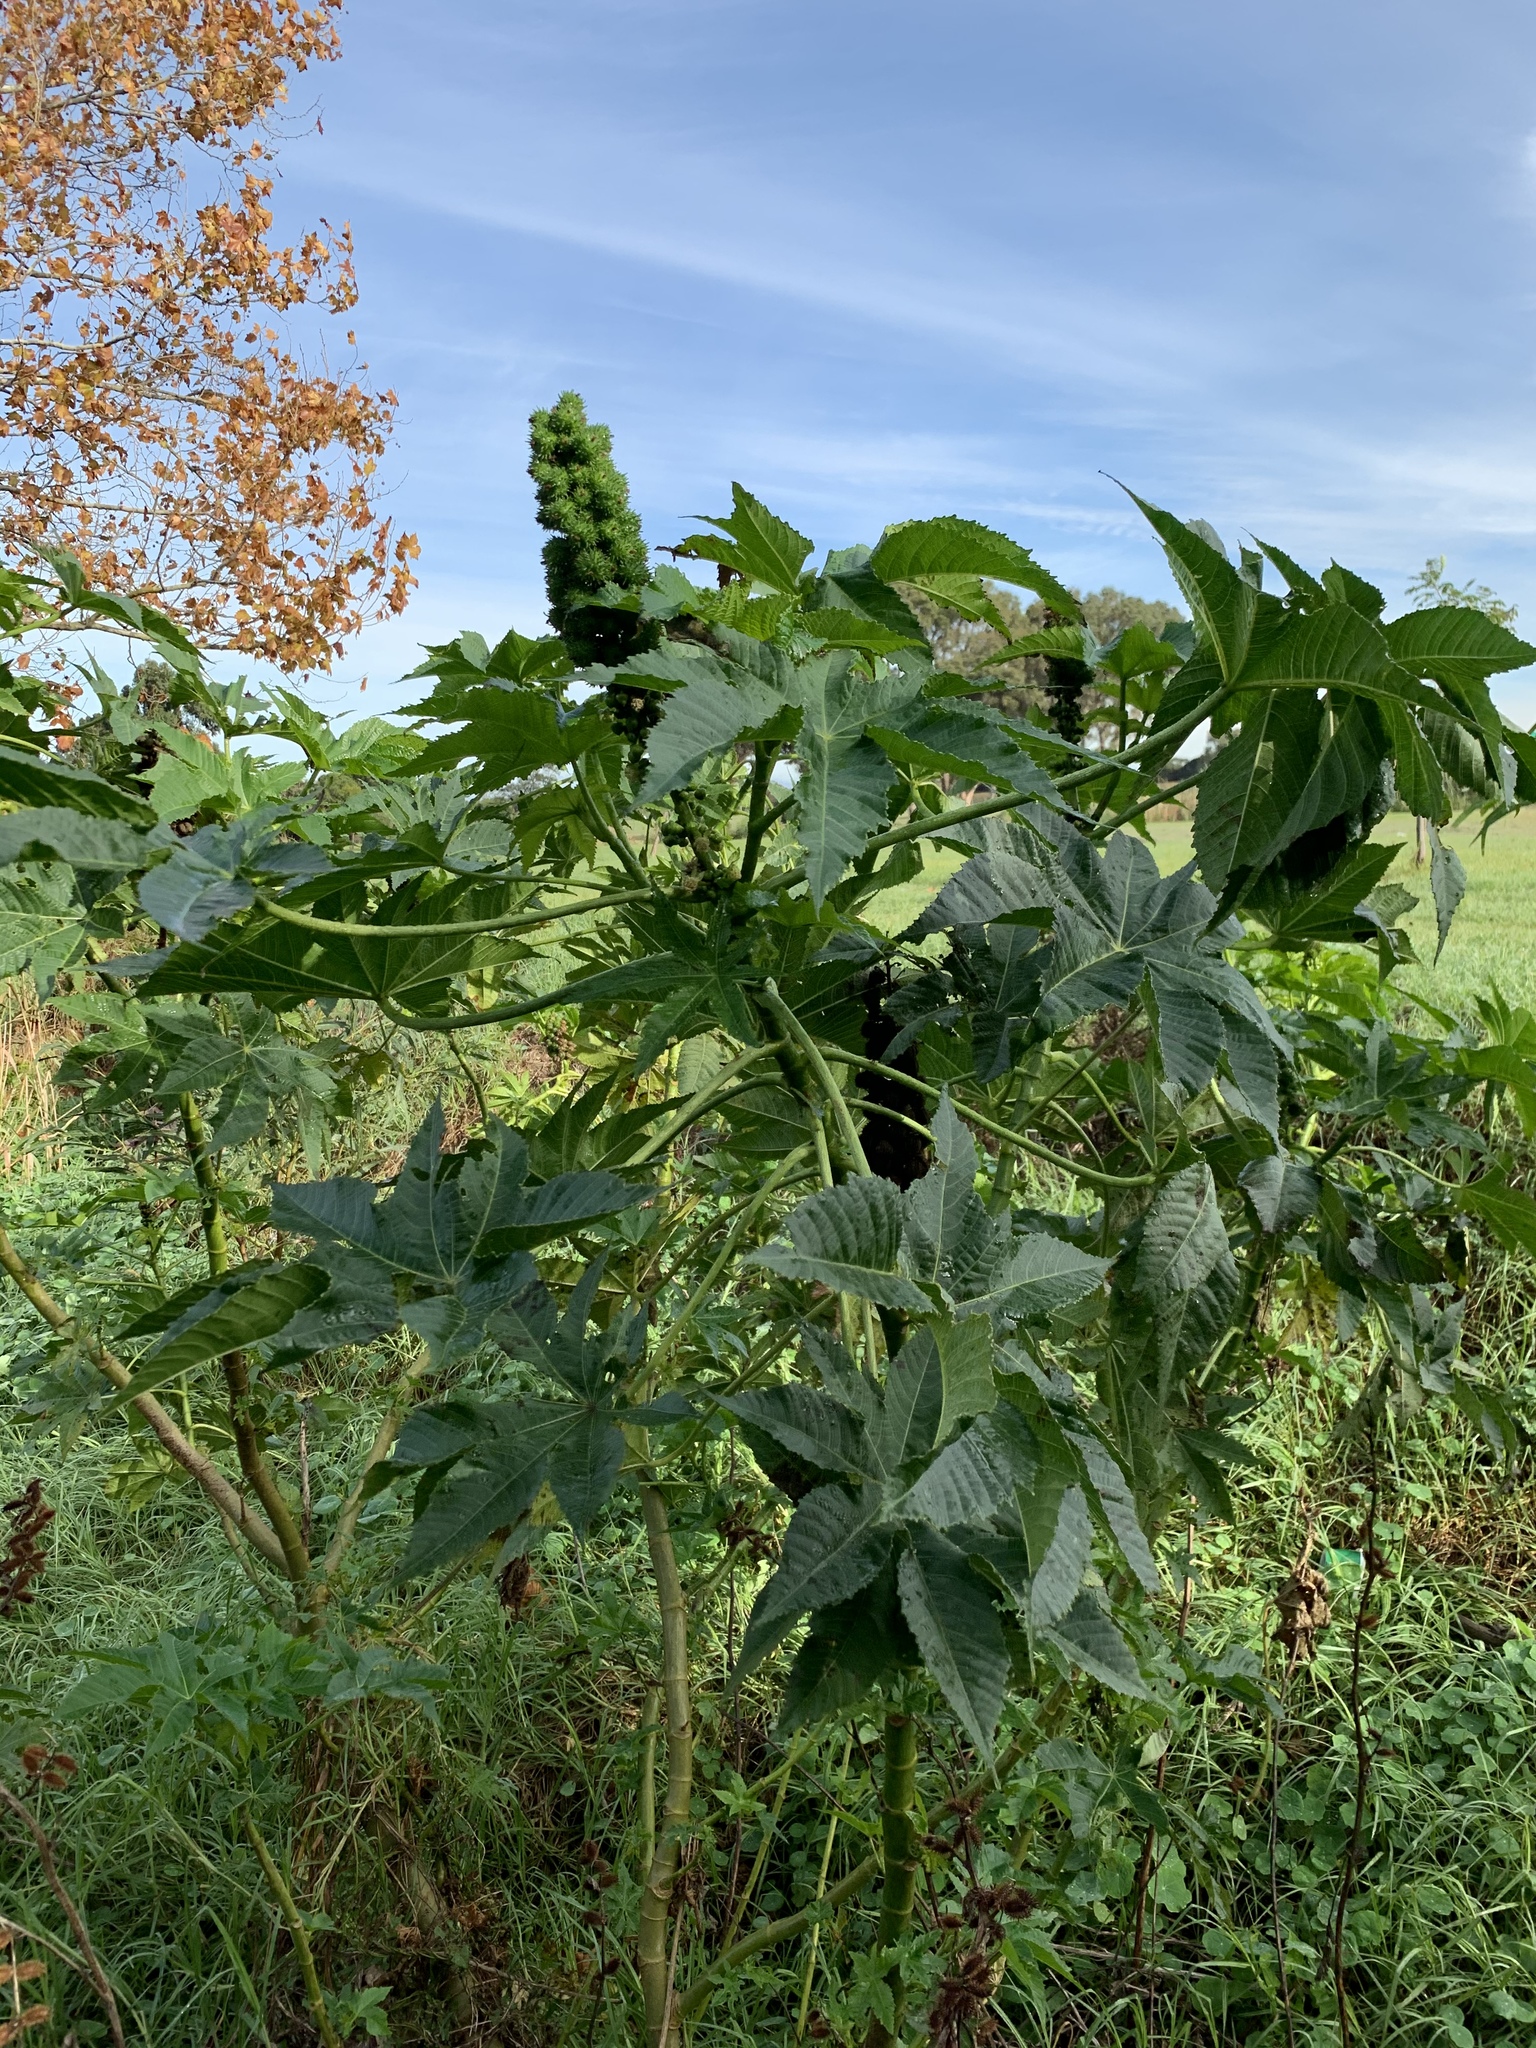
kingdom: Plantae
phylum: Tracheophyta
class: Magnoliopsida
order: Malpighiales
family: Euphorbiaceae
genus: Ricinus
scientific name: Ricinus communis
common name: Castor-oil-plant
